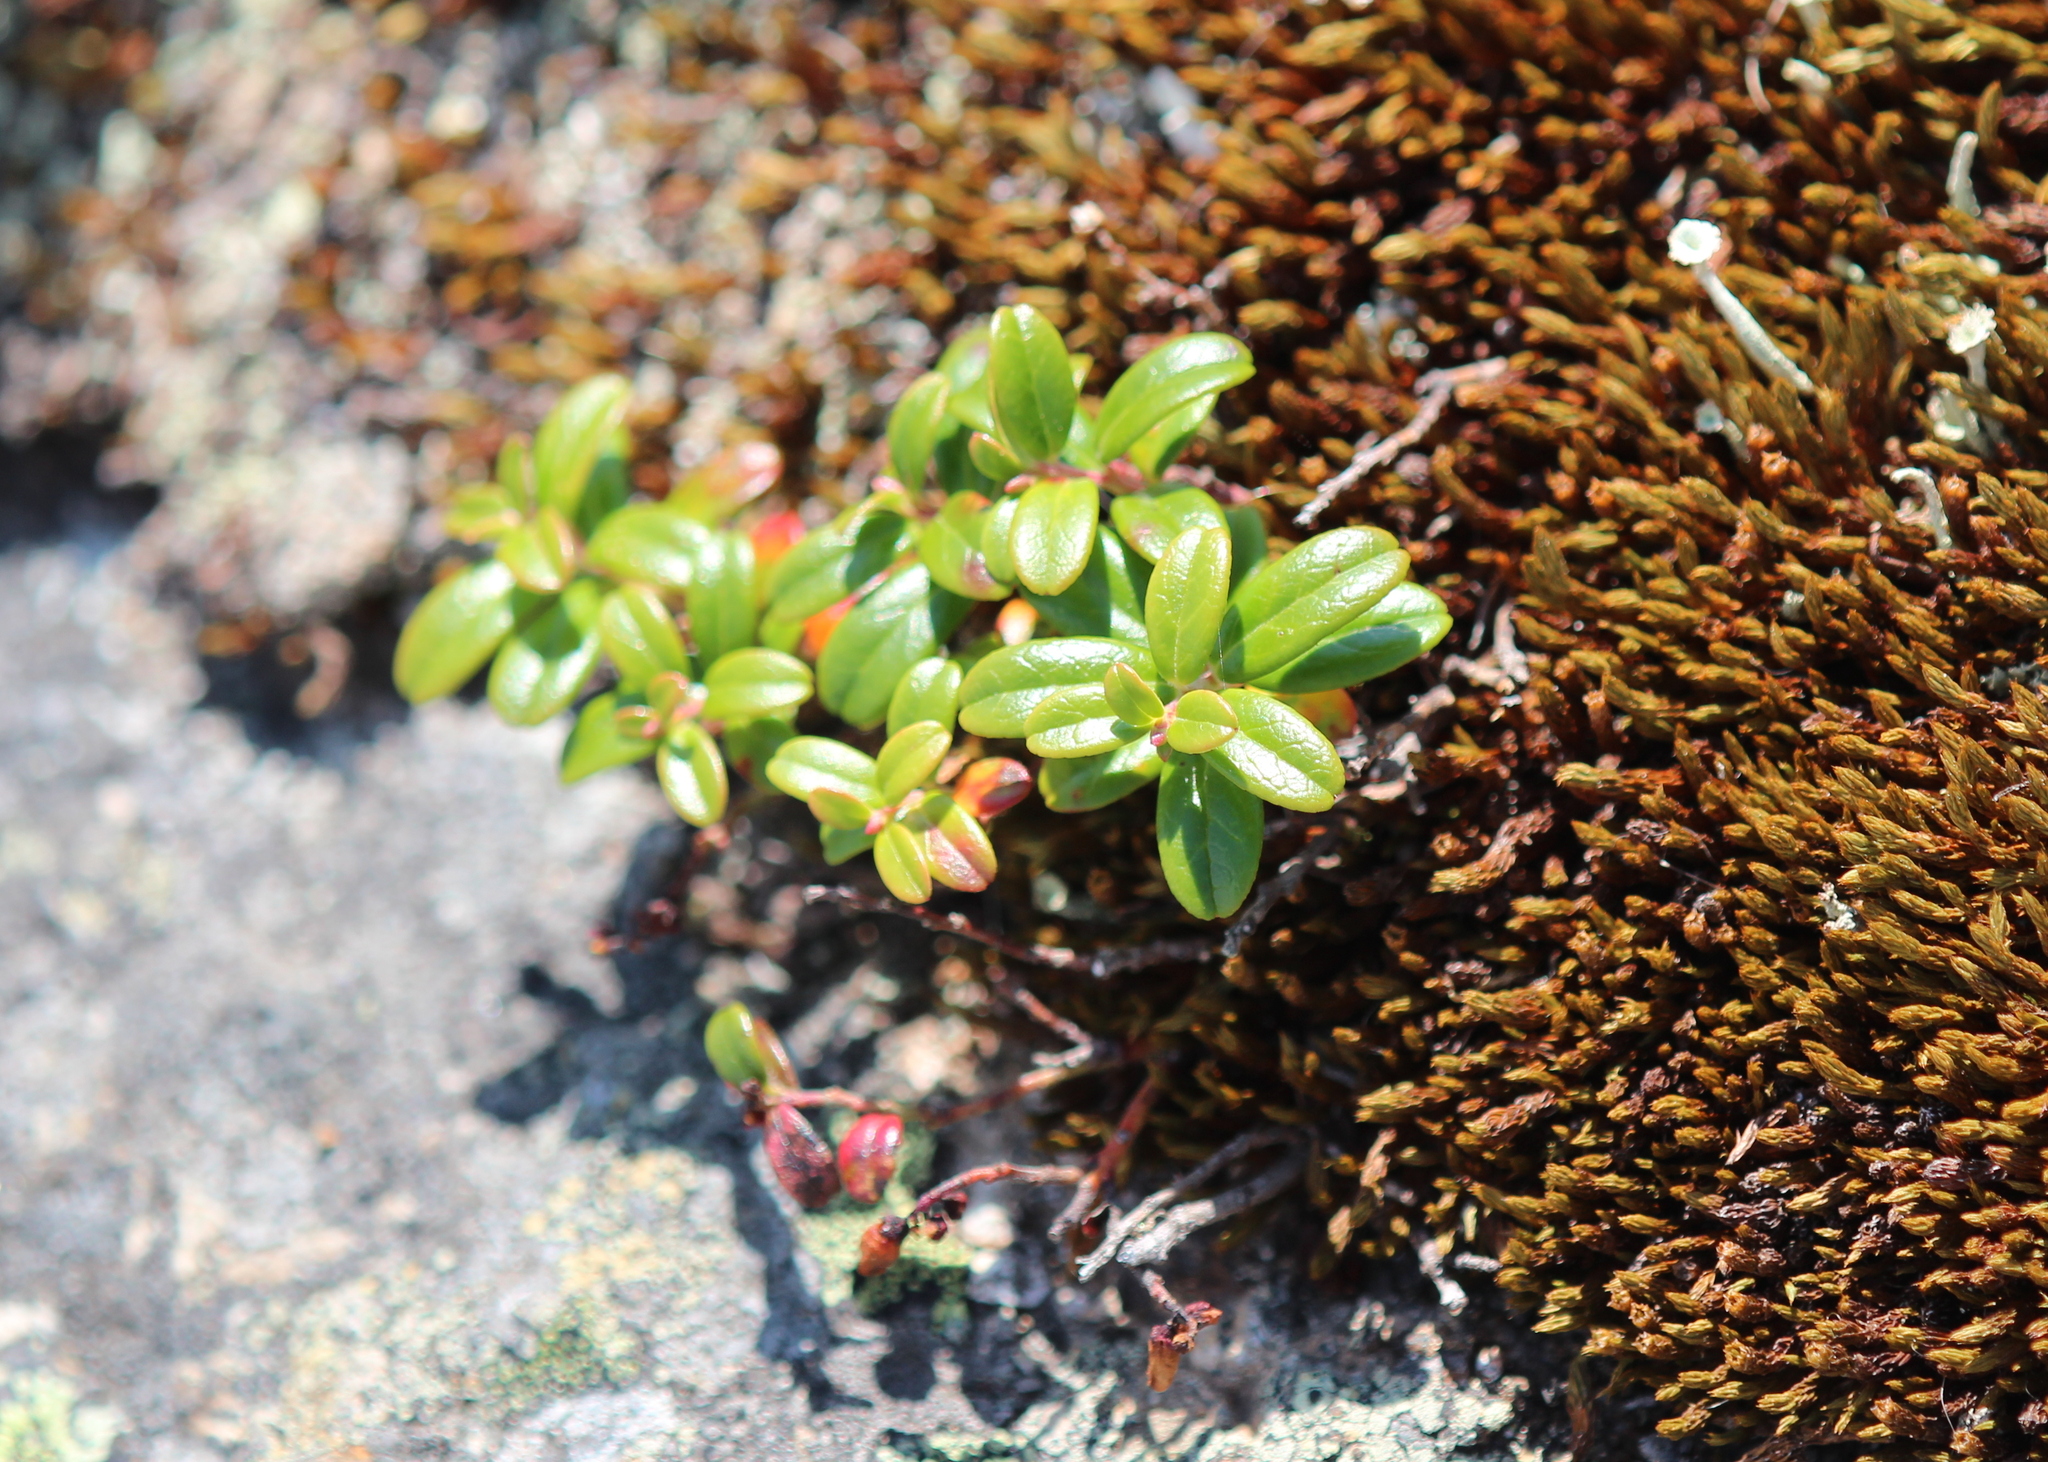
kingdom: Plantae
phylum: Tracheophyta
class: Magnoliopsida
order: Ericales
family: Ericaceae
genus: Vaccinium
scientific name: Vaccinium vitis-idaea
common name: Cowberry
